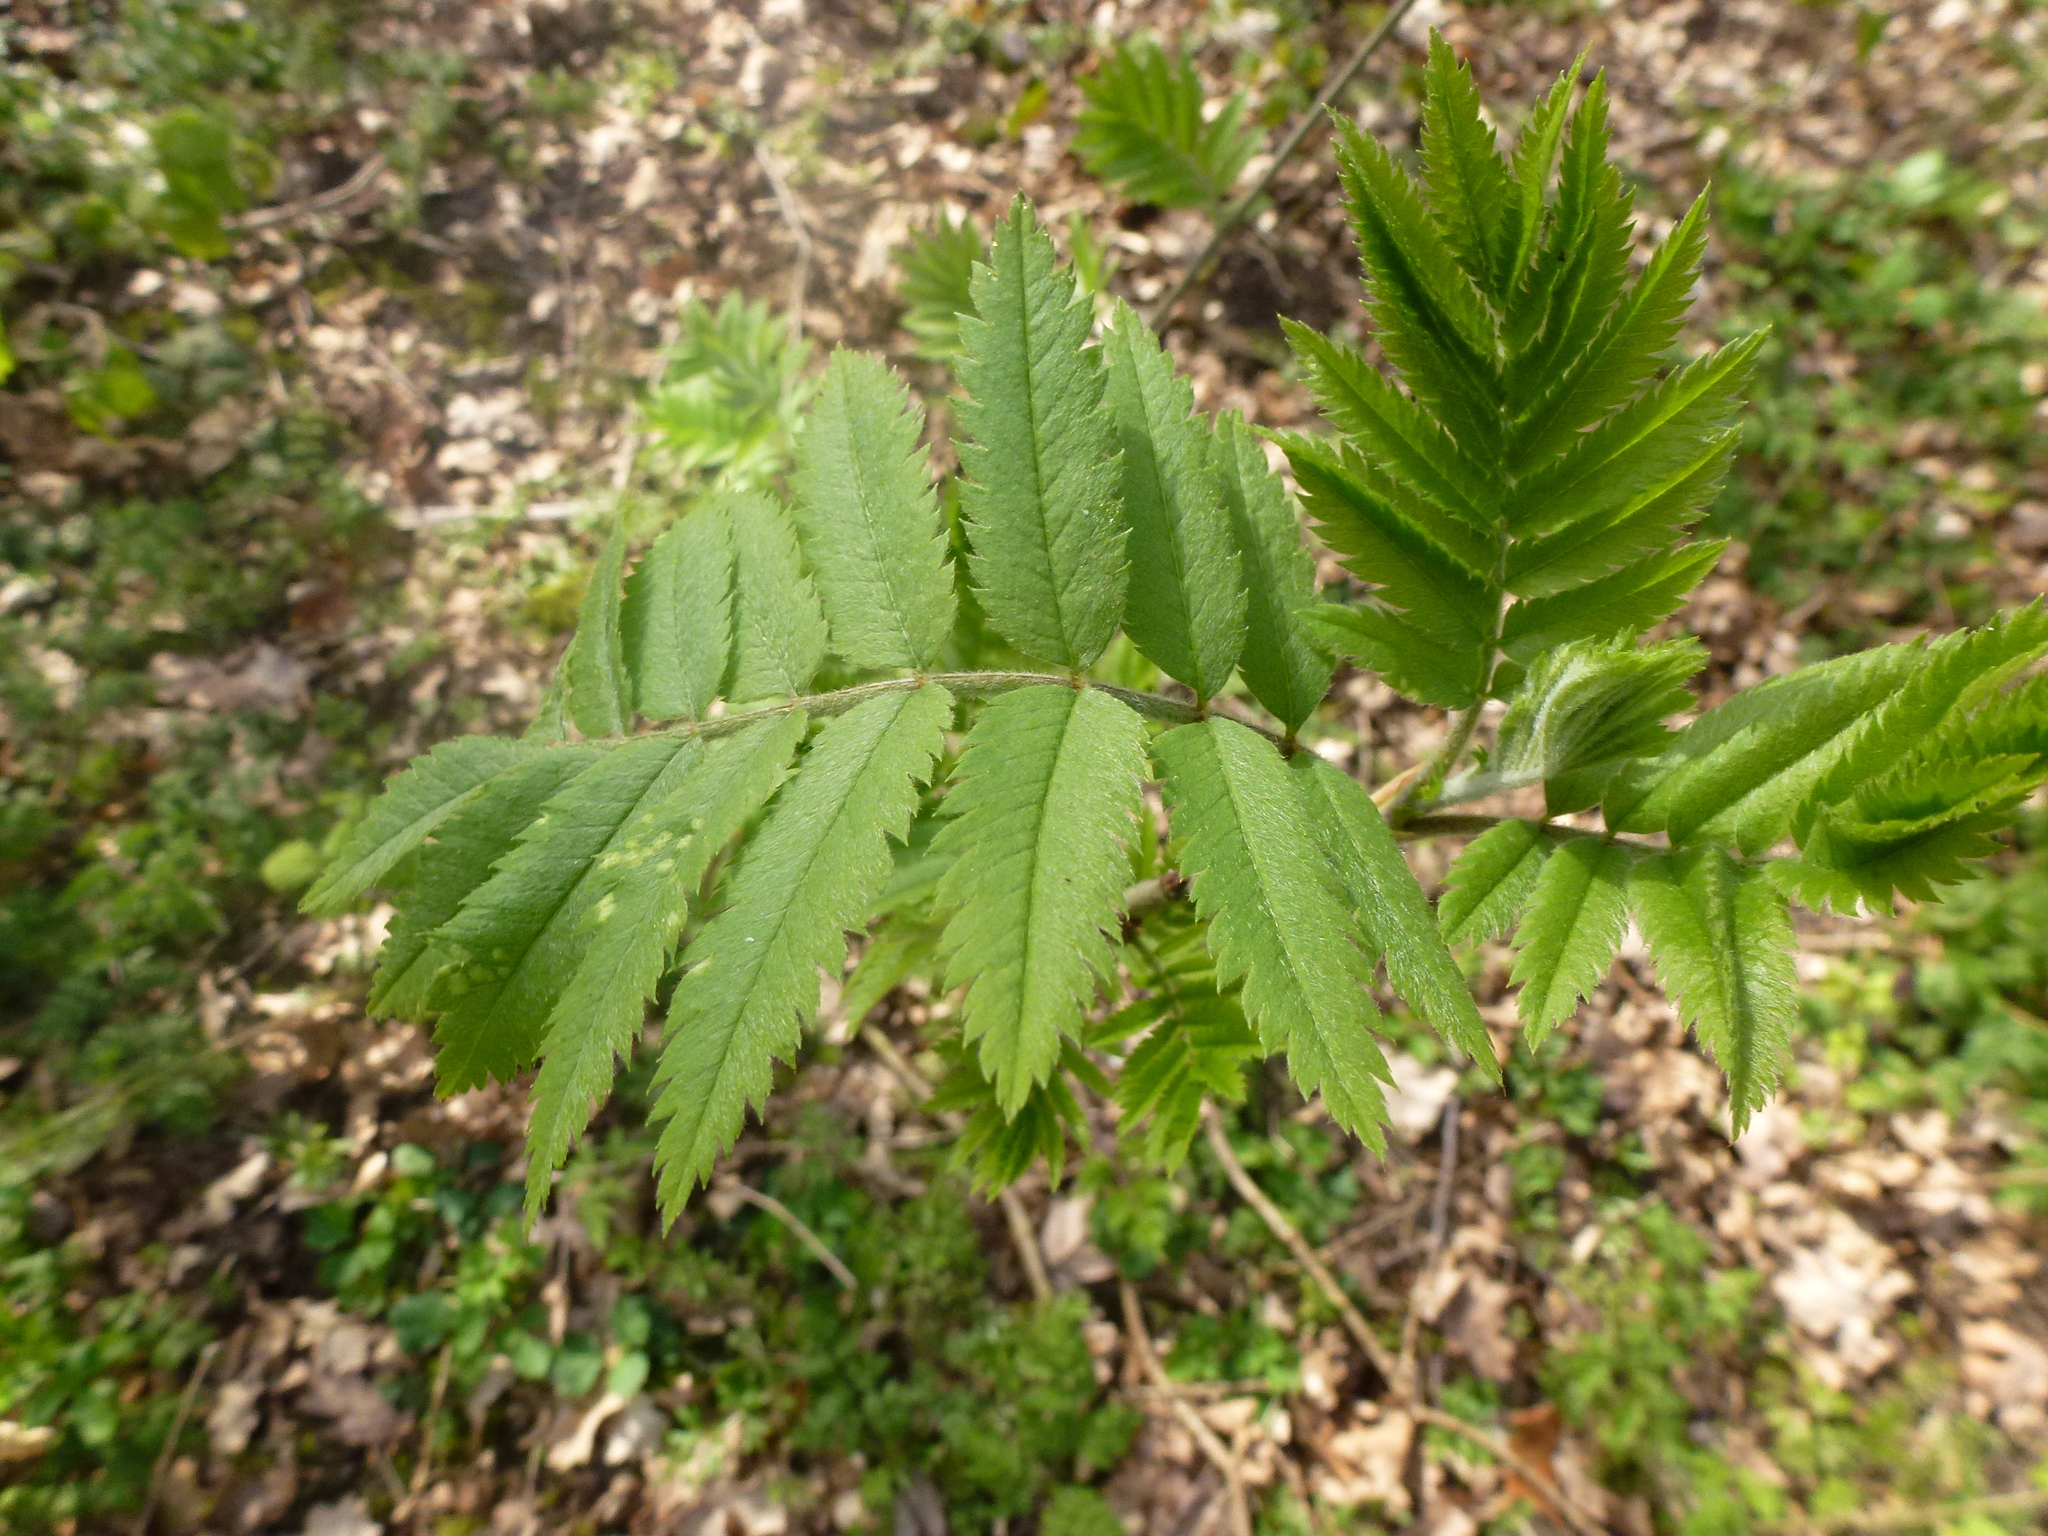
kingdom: Plantae
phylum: Tracheophyta
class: Magnoliopsida
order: Rosales
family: Rosaceae
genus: Sorbus
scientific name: Sorbus aucuparia
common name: Rowan
